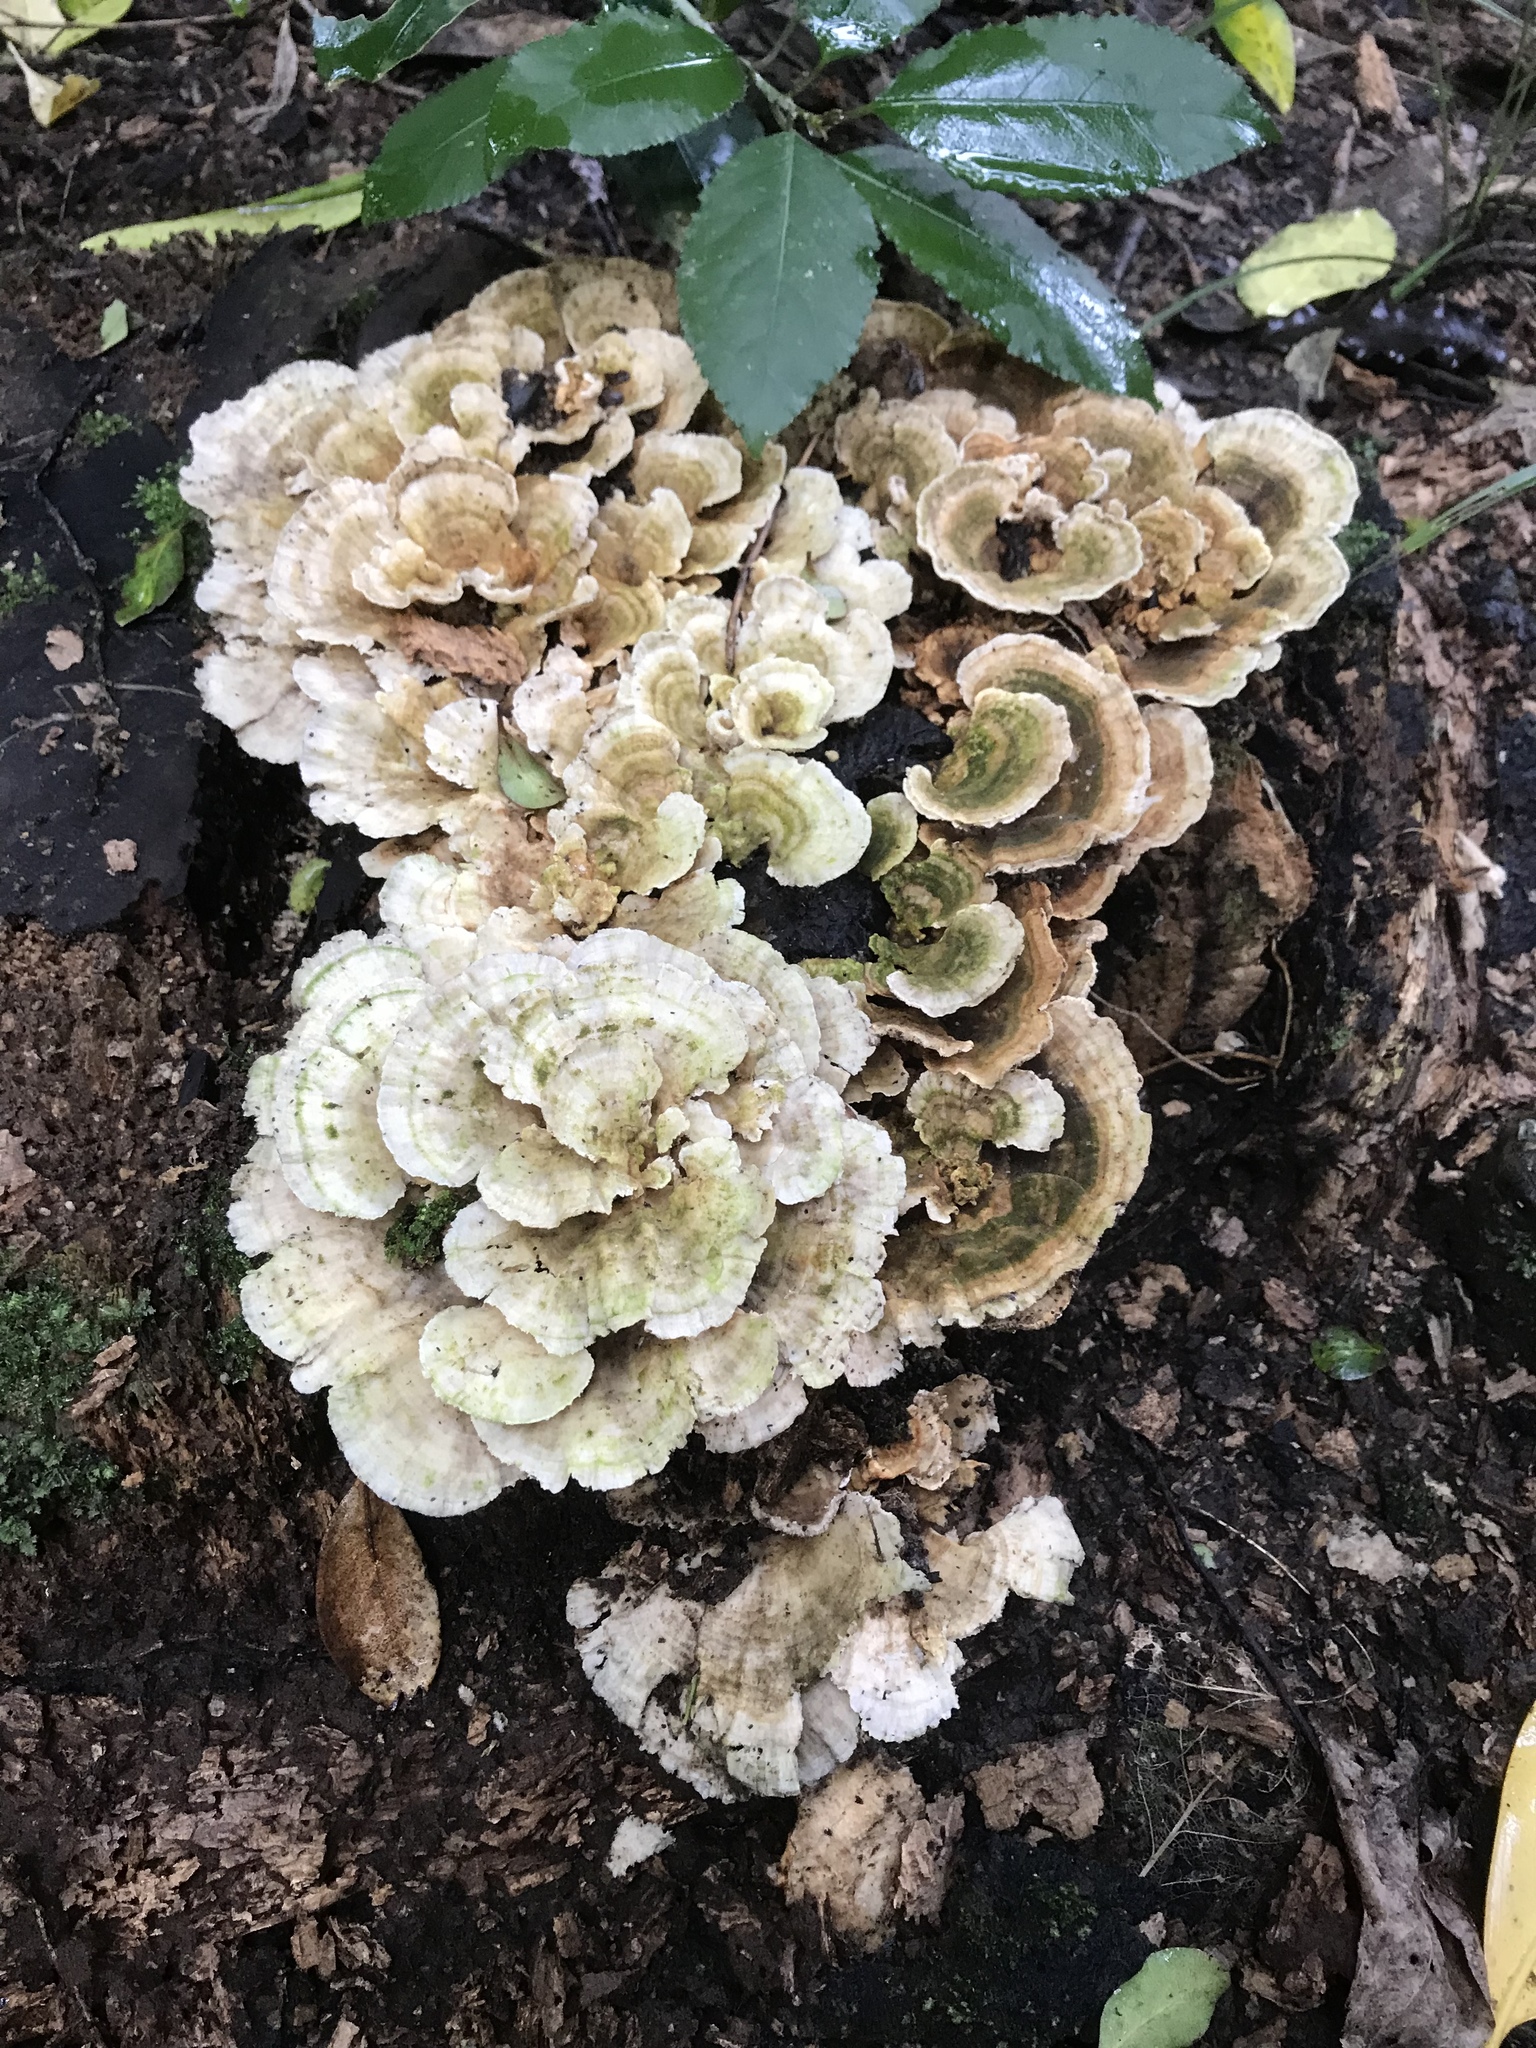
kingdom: Fungi
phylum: Basidiomycota
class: Agaricomycetes
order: Polyporales
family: Polyporaceae
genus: Trametes
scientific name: Trametes versicolor
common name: Turkeytail
